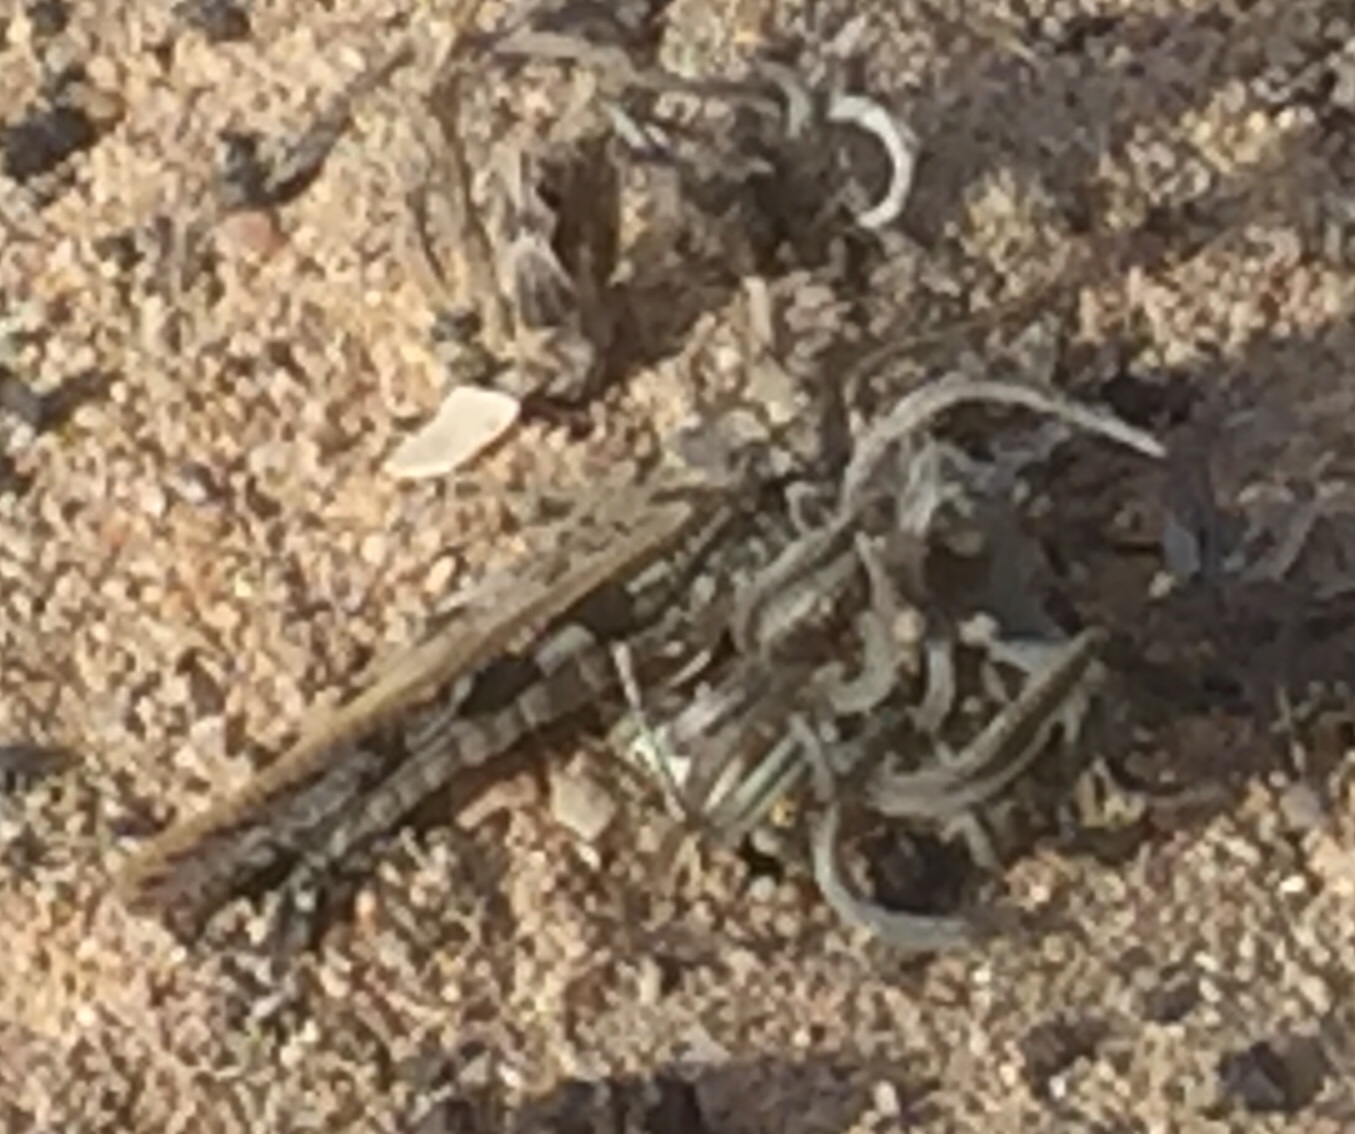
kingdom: Animalia
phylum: Arthropoda
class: Insecta
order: Orthoptera
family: Acrididae
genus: Acrotylus
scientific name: Acrotylus insubricus
